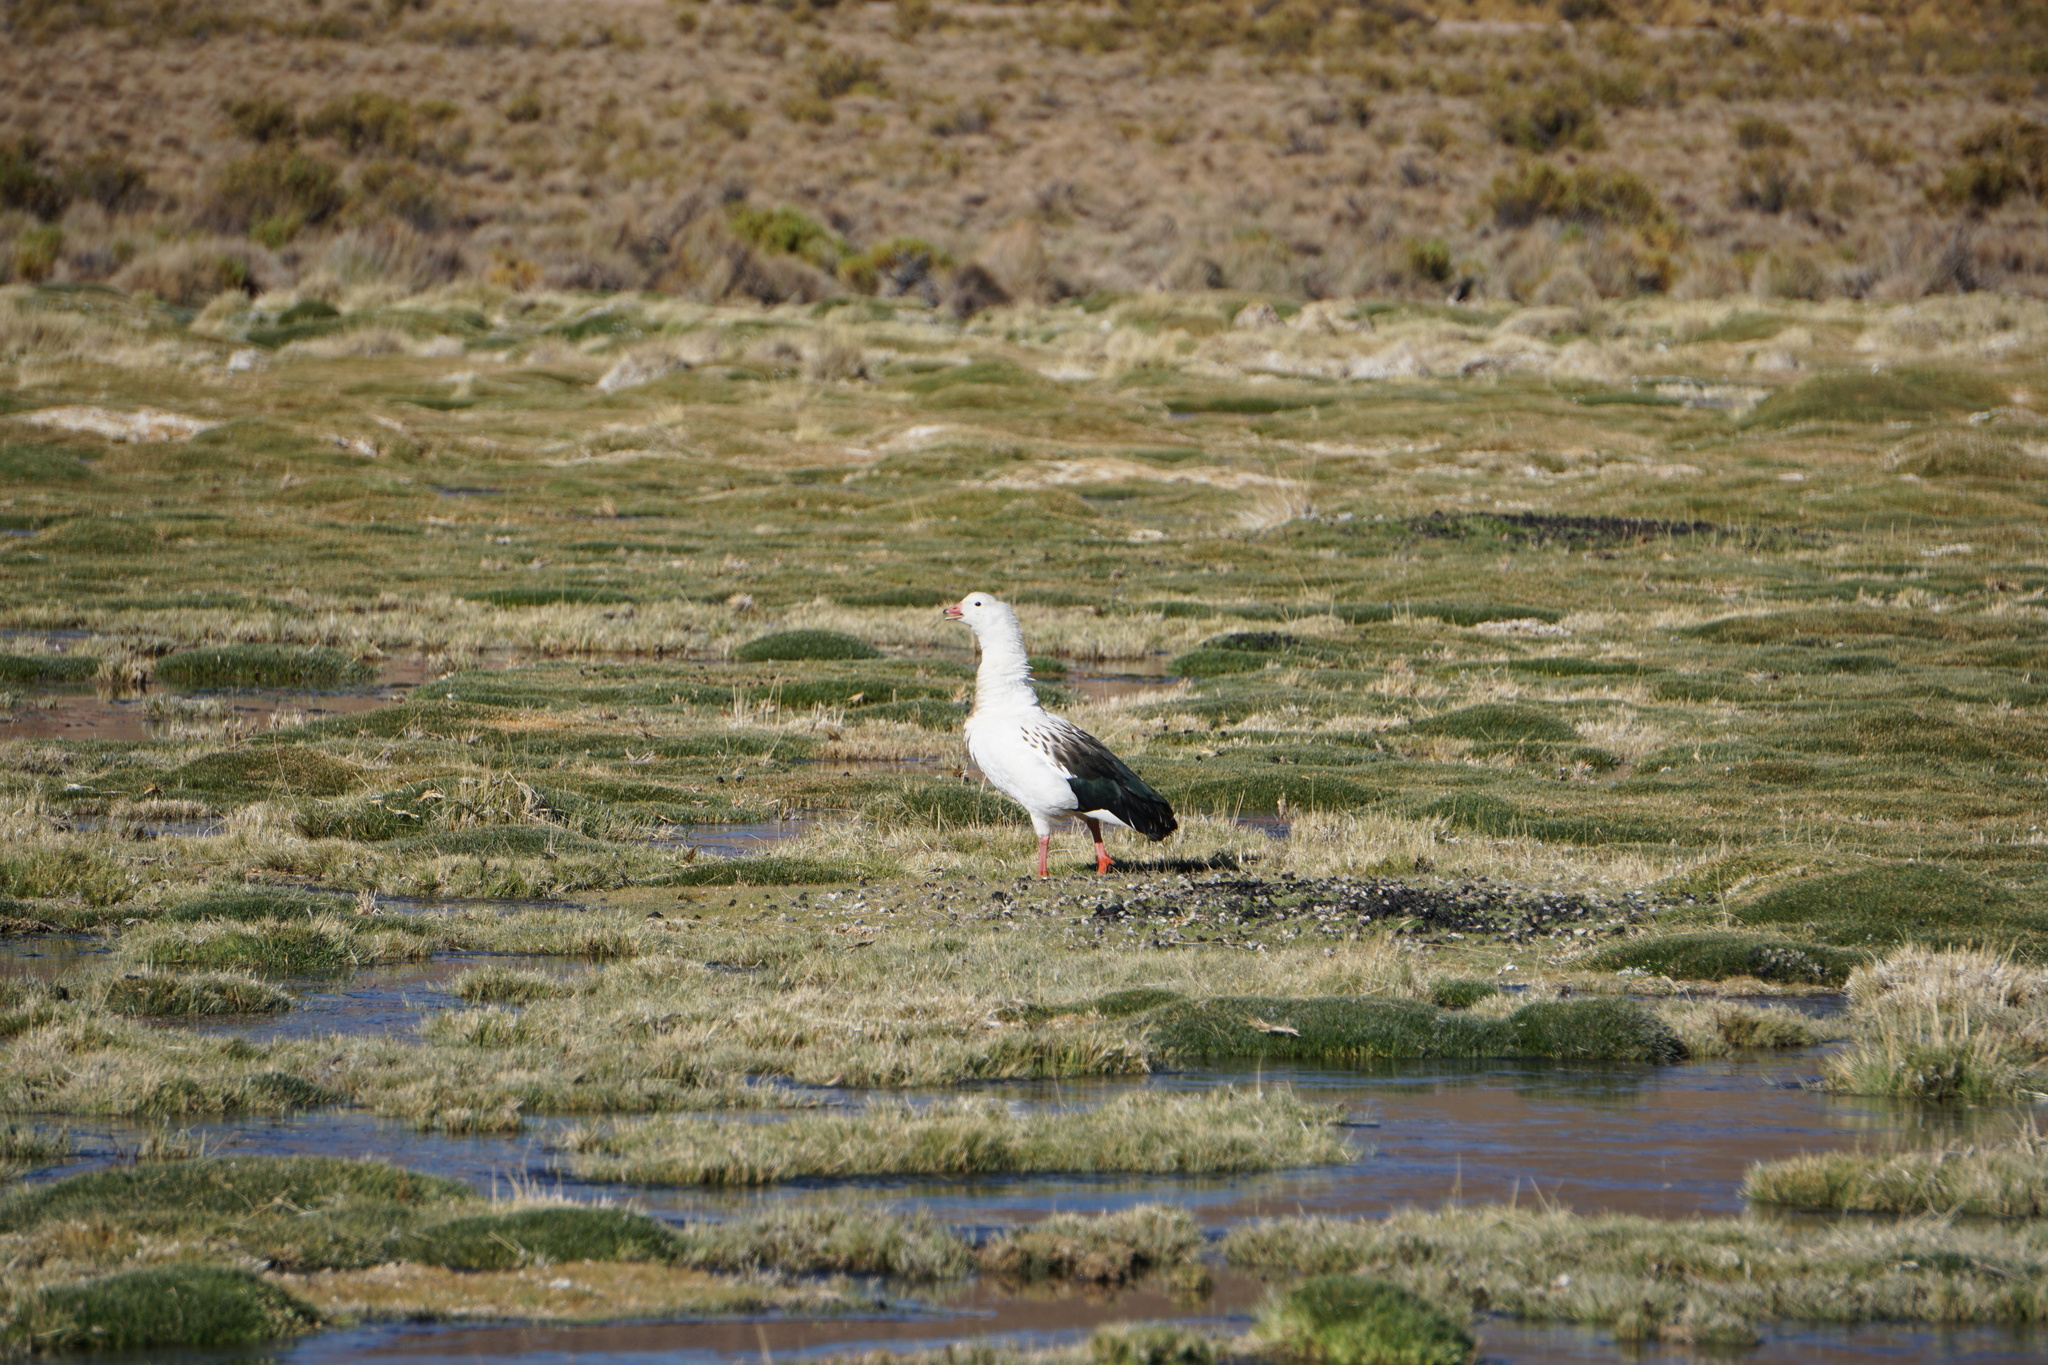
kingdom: Animalia
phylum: Chordata
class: Aves
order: Anseriformes
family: Anatidae
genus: Chloephaga
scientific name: Chloephaga melanoptera
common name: Andean goose
